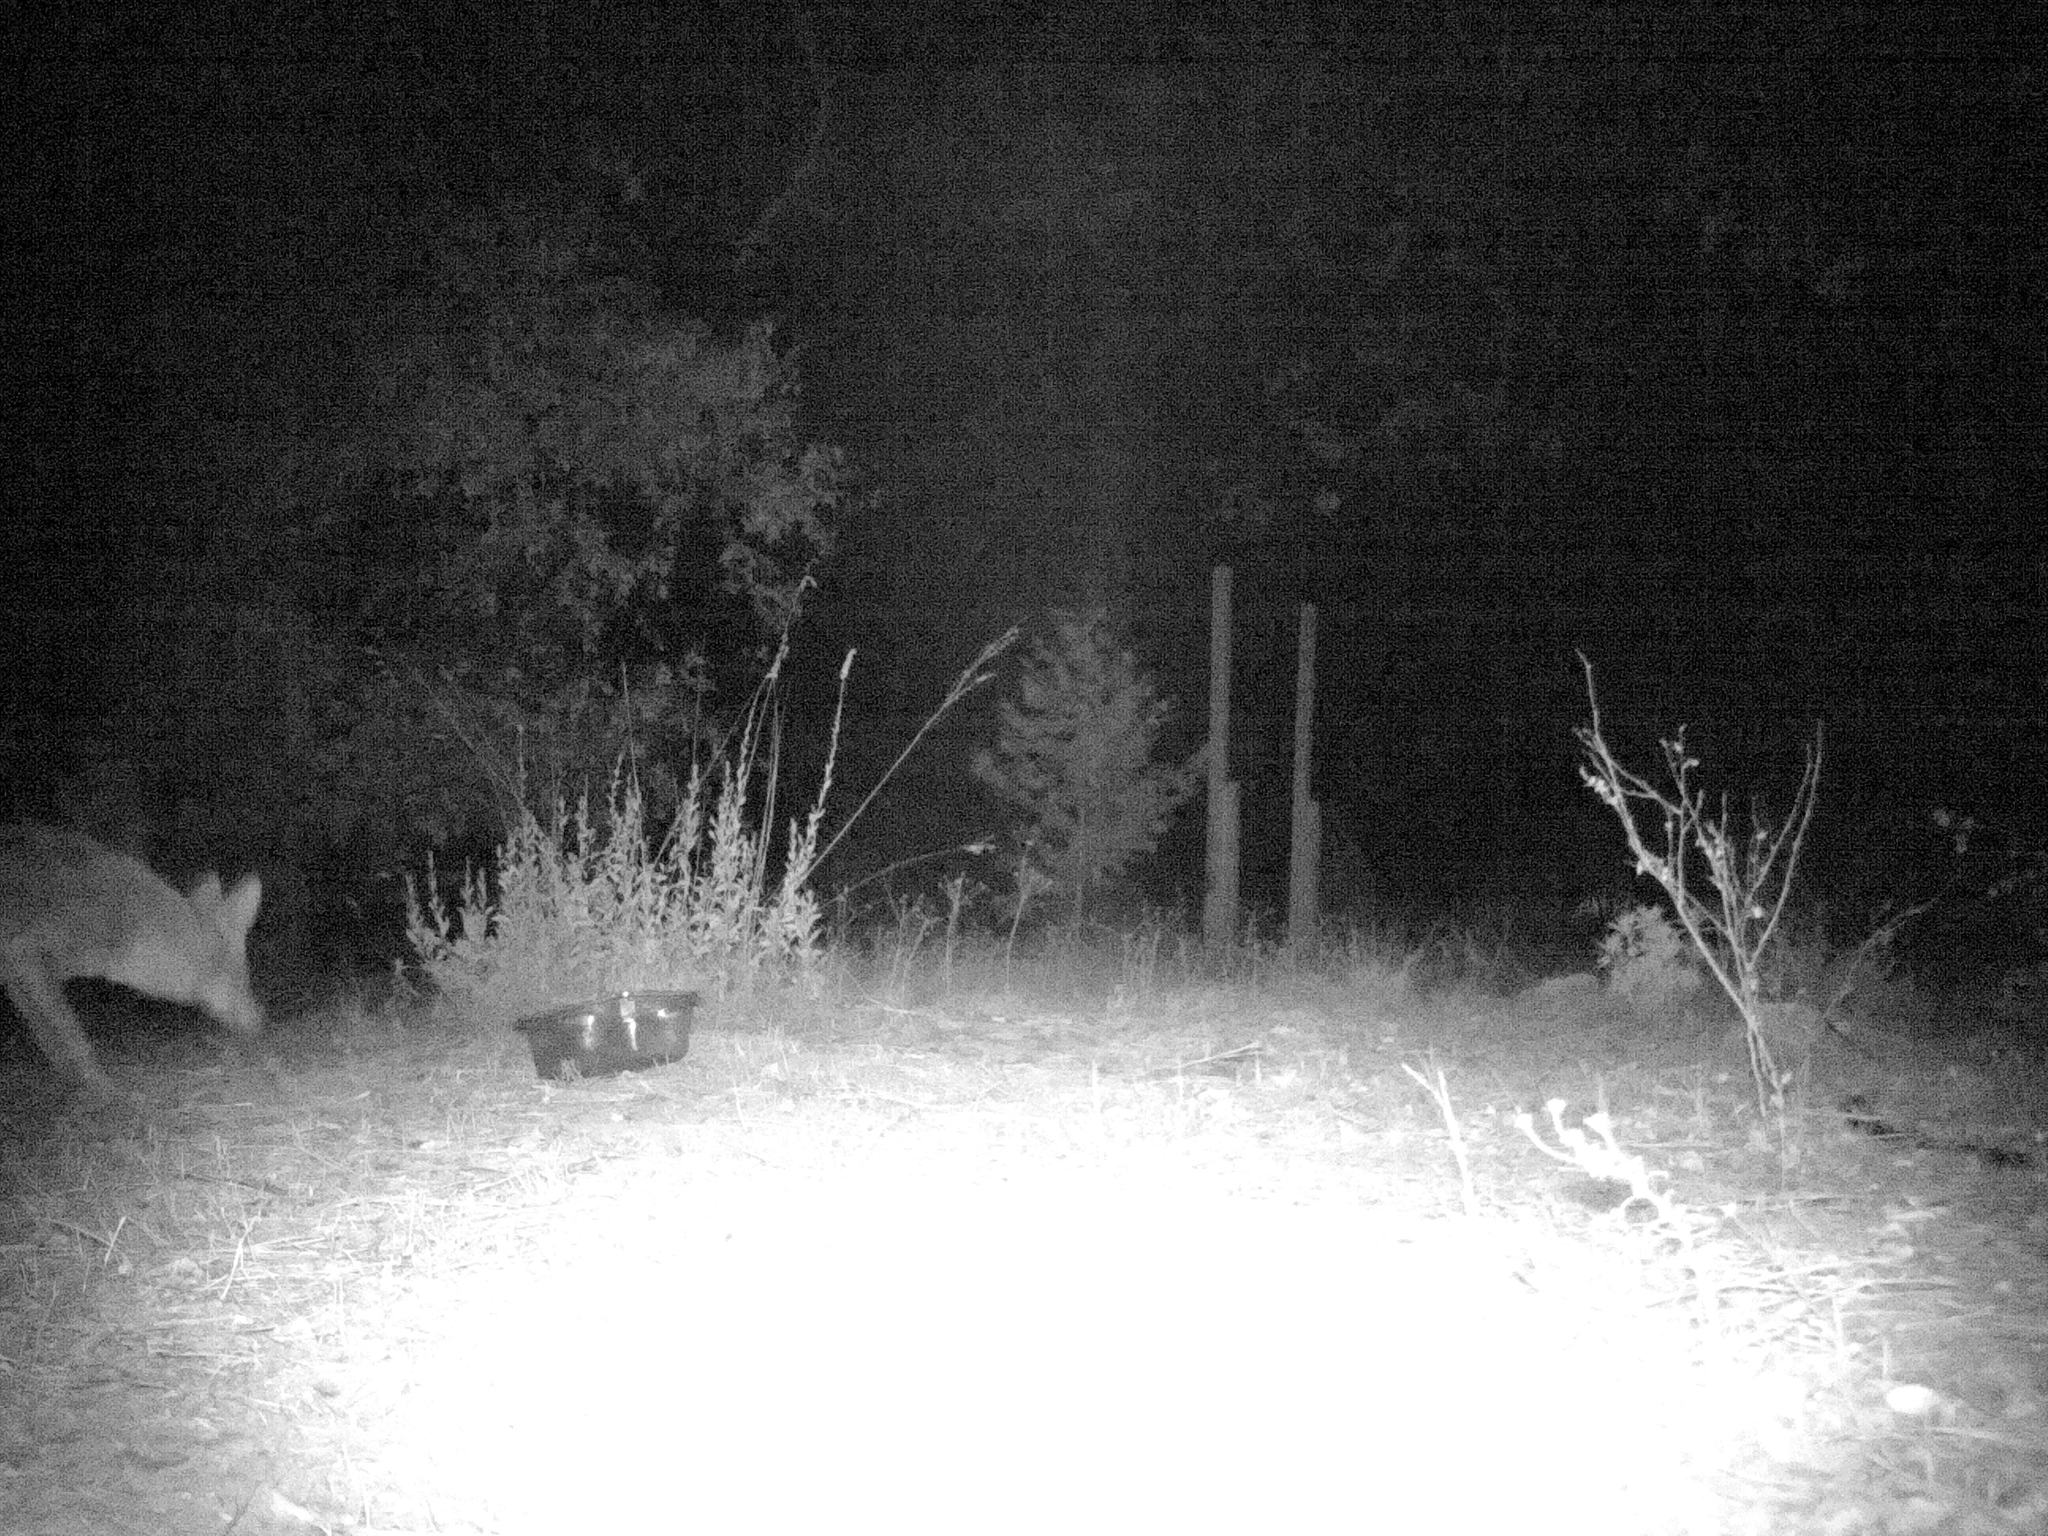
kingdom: Animalia
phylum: Chordata
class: Mammalia
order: Carnivora
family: Canidae
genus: Canis
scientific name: Canis latrans
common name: Coyote
